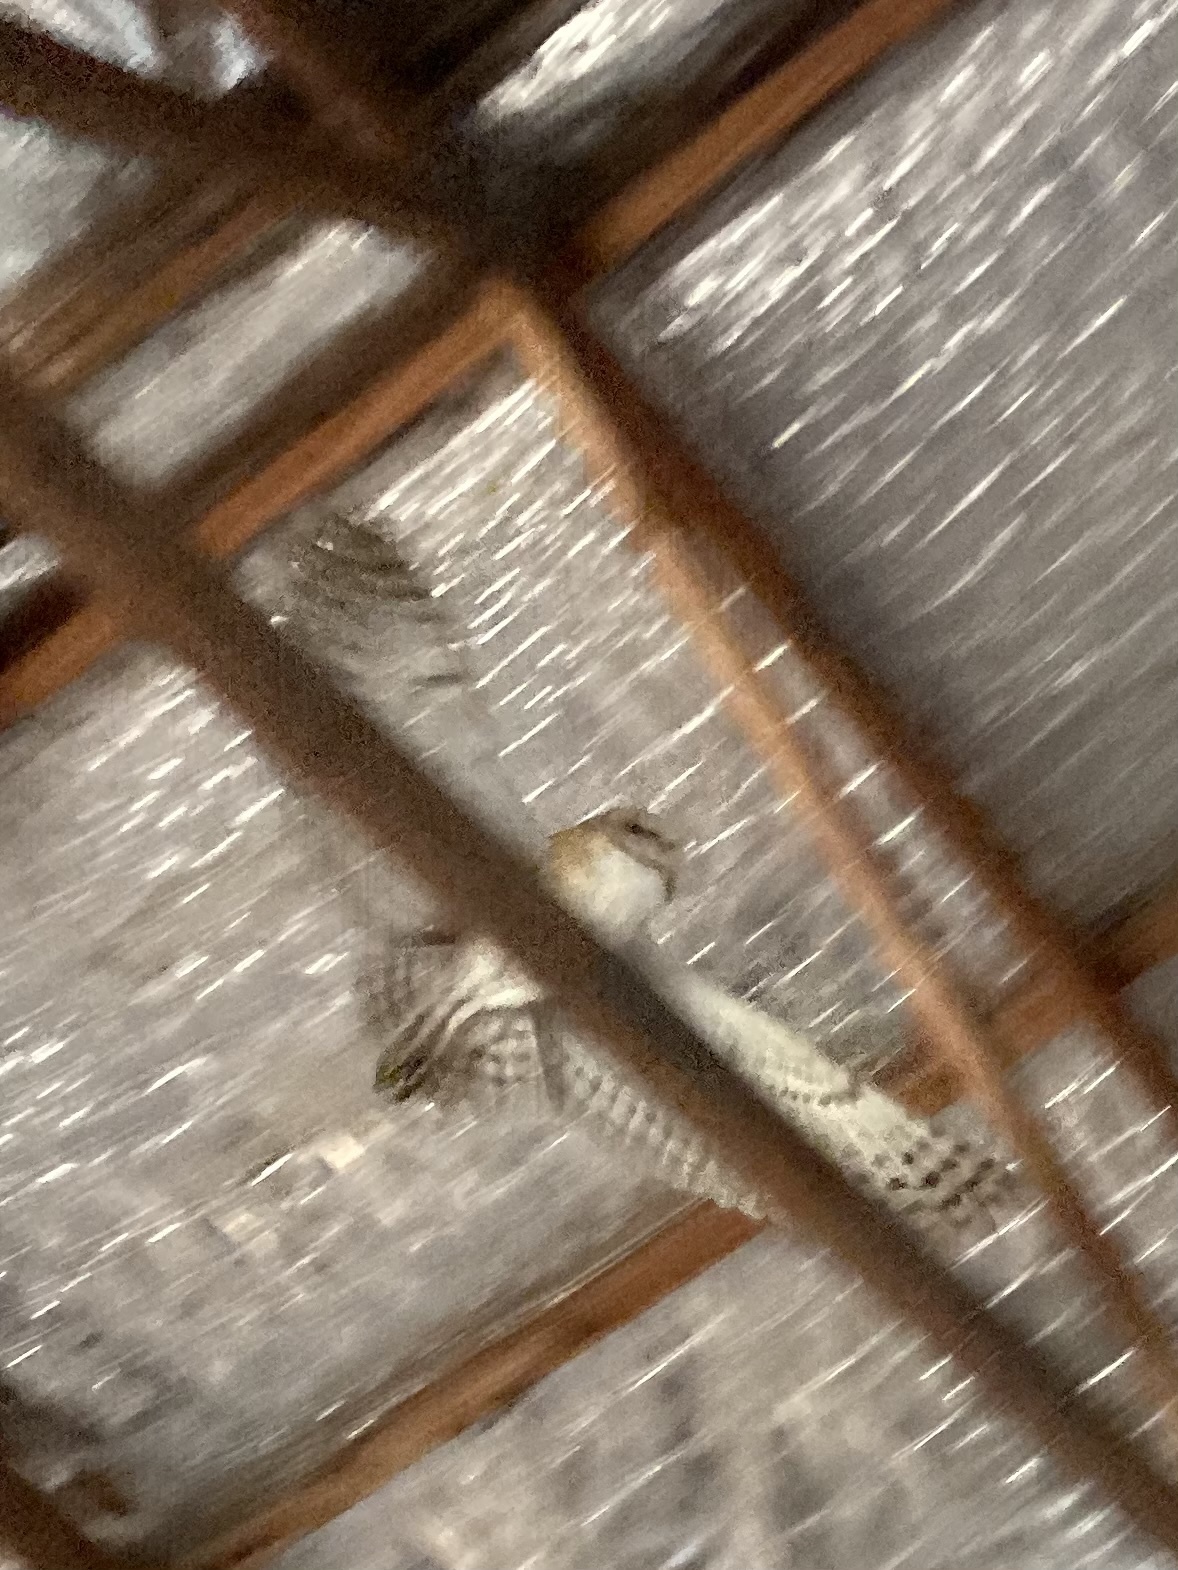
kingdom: Animalia
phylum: Chordata
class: Aves
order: Strigiformes
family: Tytonidae
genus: Tyto
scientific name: Tyto alba
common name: Barn owl
